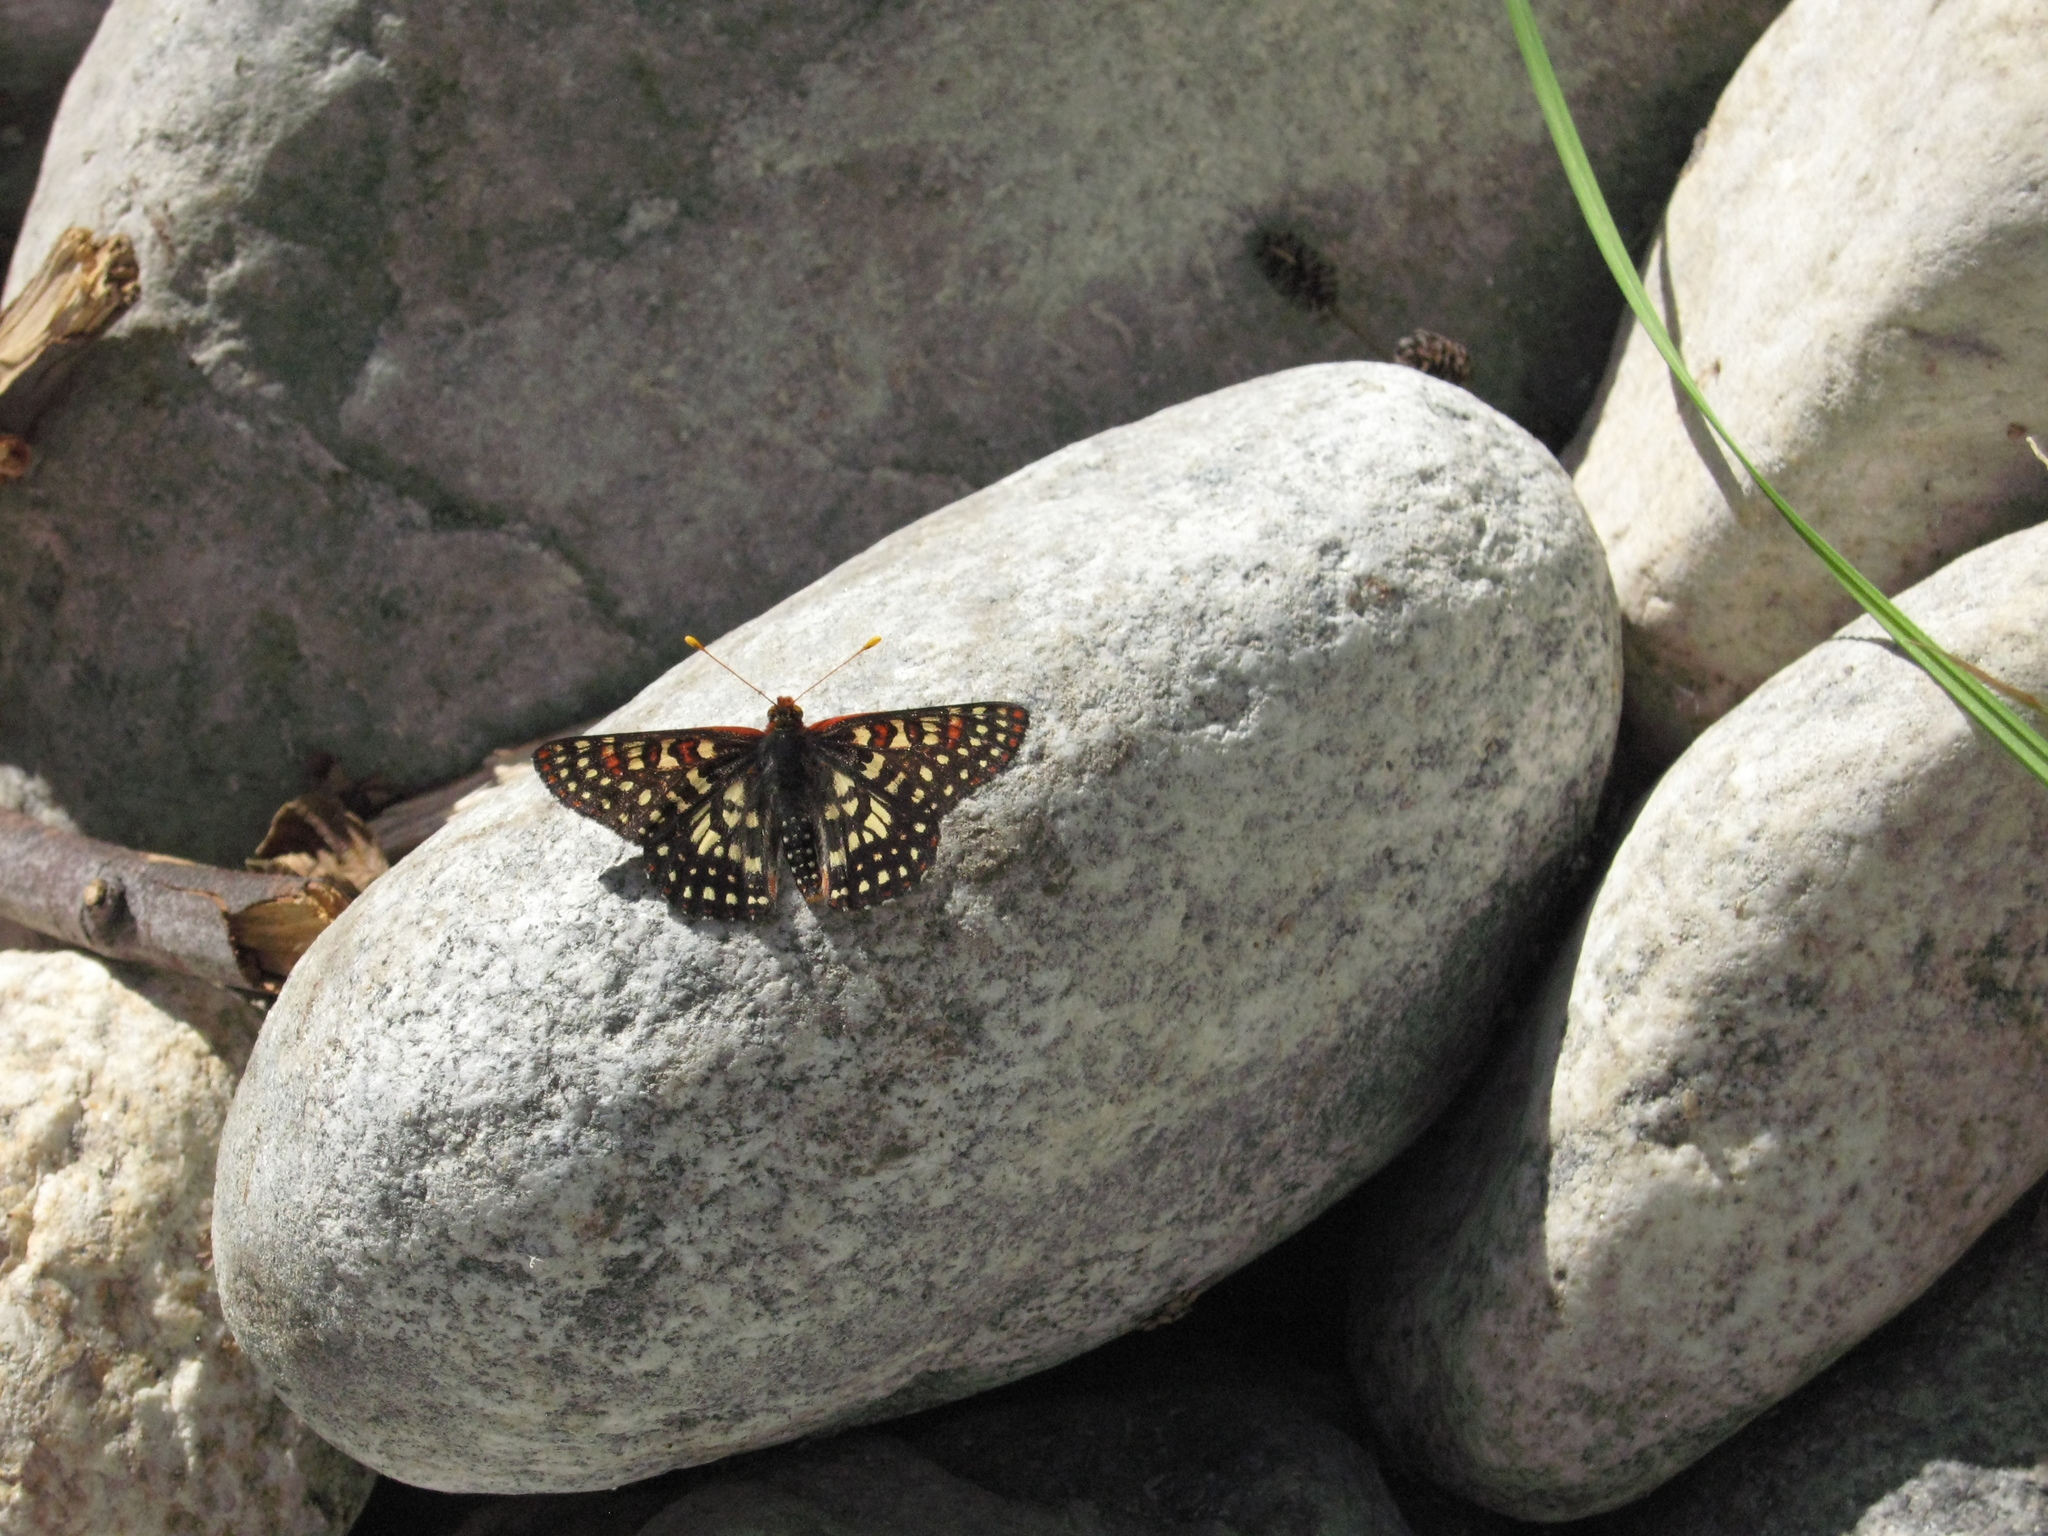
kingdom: Animalia
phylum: Arthropoda
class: Insecta
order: Lepidoptera
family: Nymphalidae
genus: Occidryas
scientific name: Occidryas chalcedona
